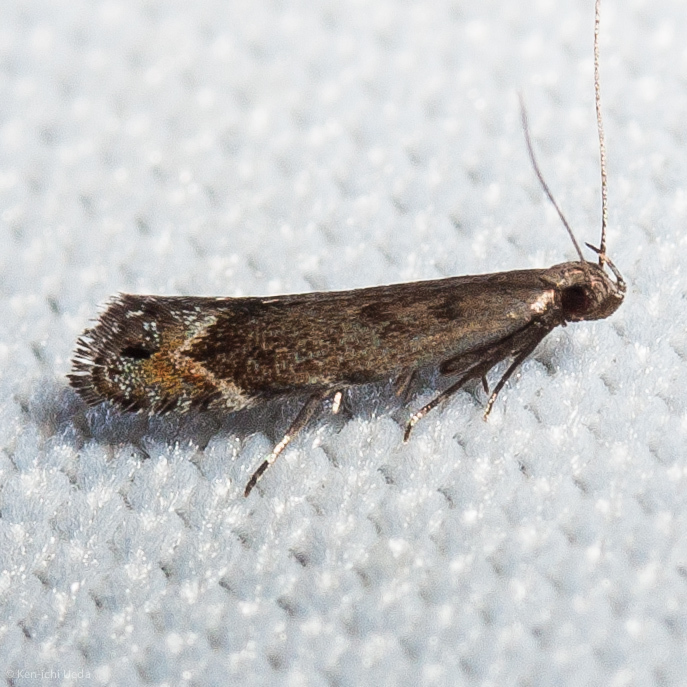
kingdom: Animalia
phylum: Arthropoda
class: Insecta
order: Lepidoptera
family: Gelechiidae
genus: Battaristis
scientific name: Battaristis concinnusella
